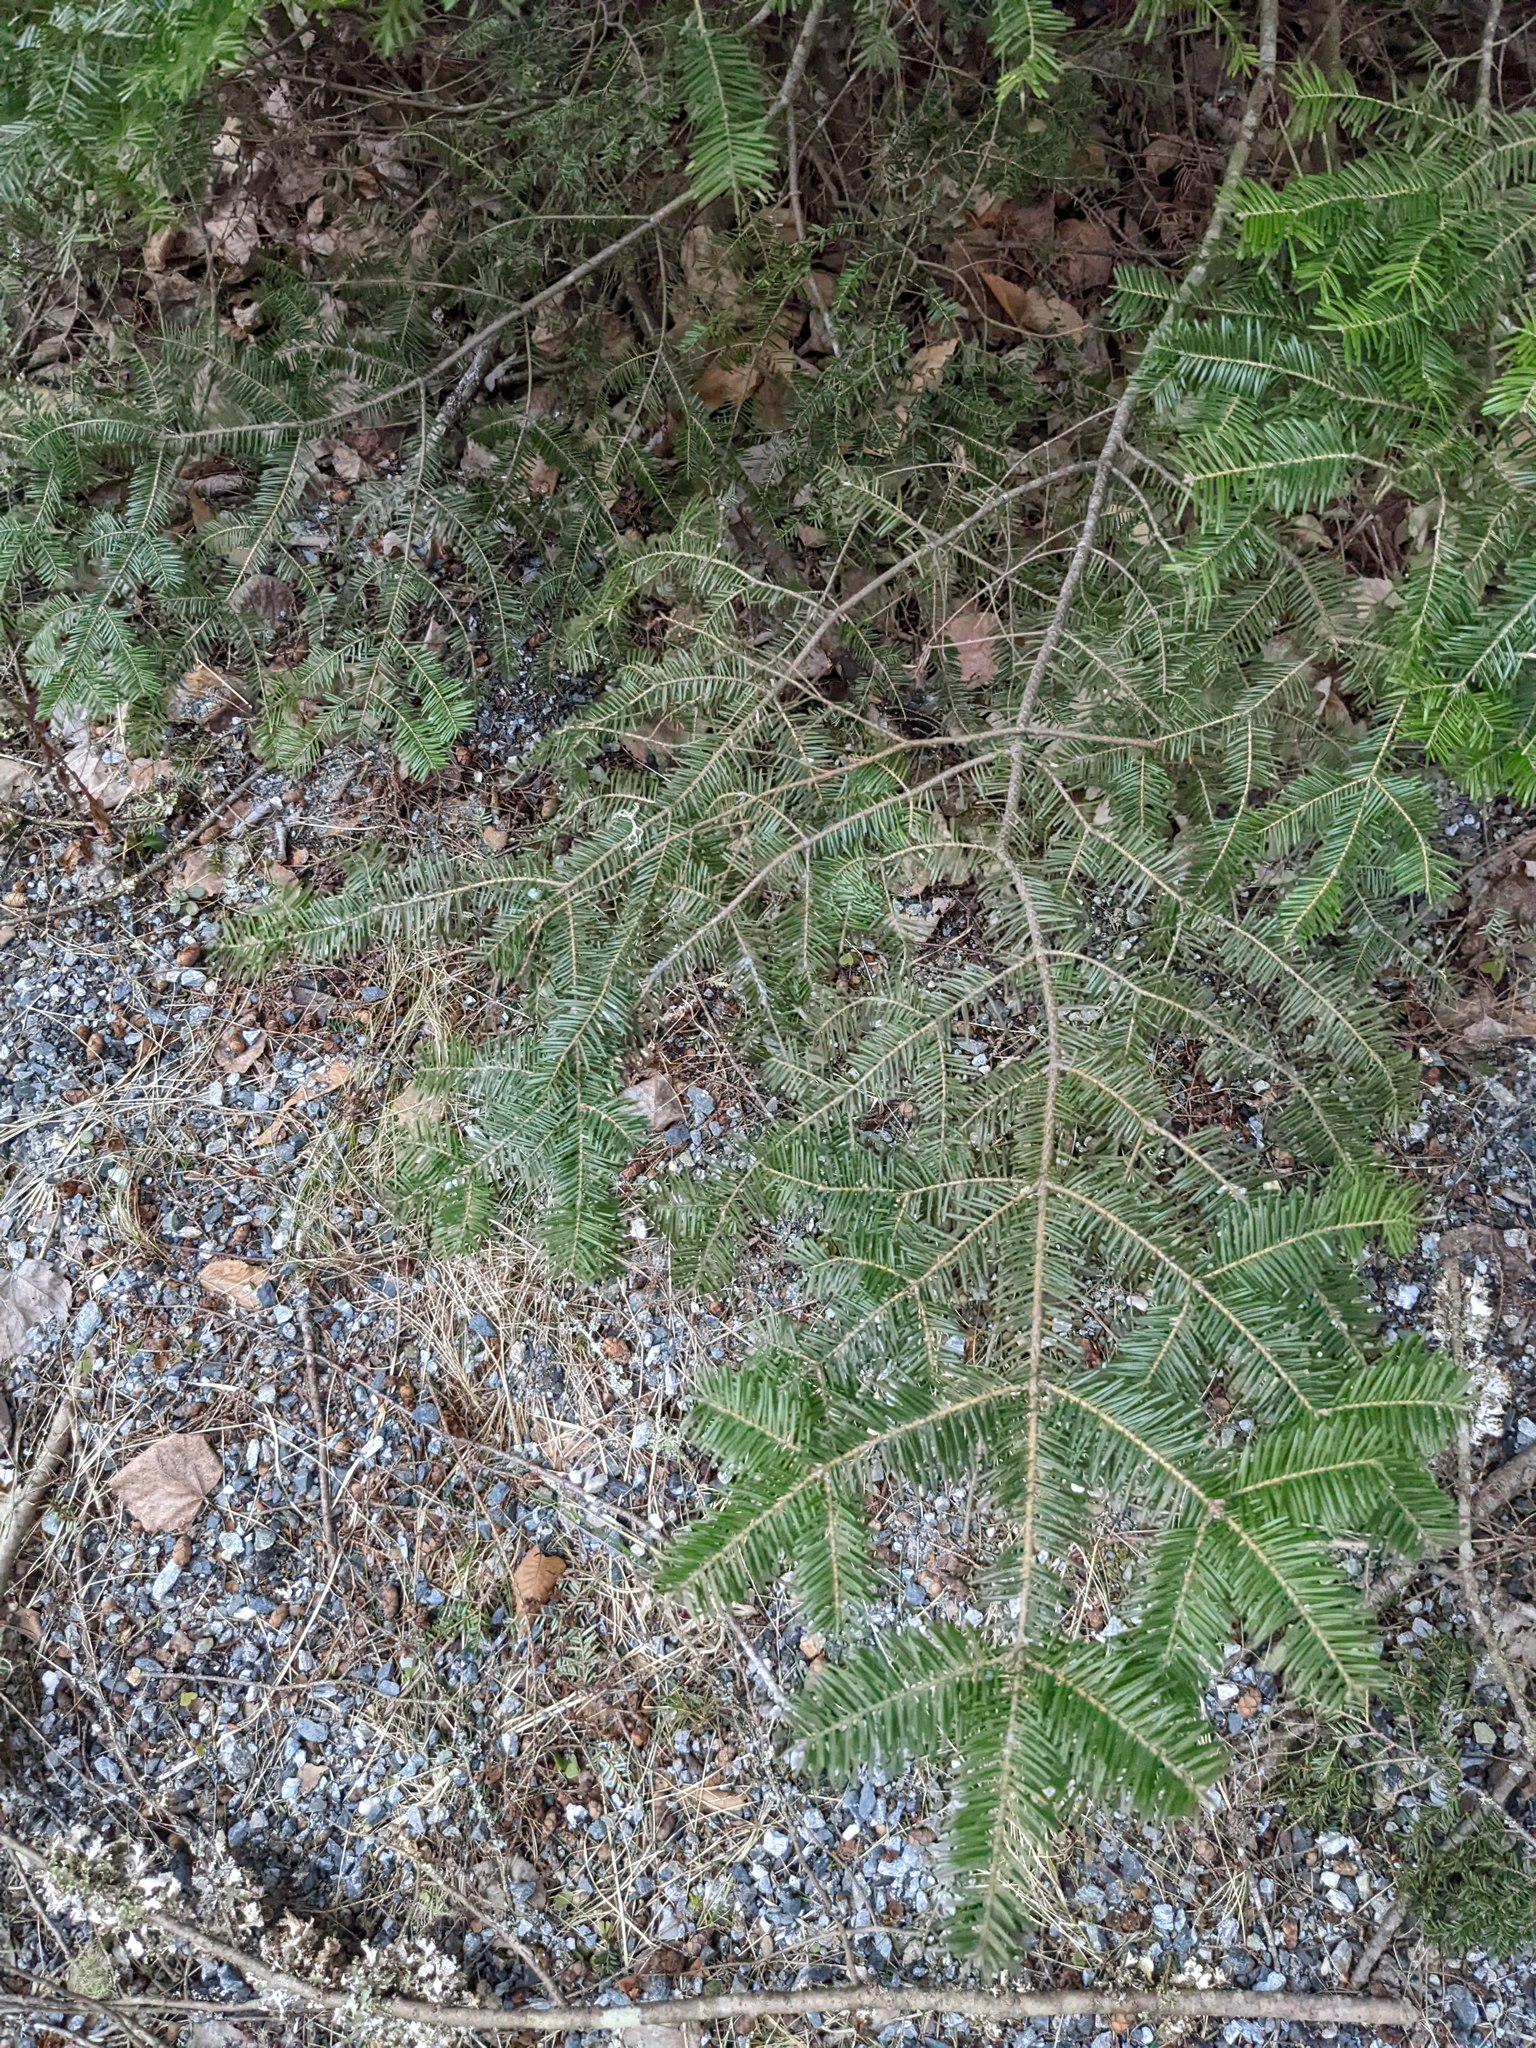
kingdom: Plantae
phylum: Tracheophyta
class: Pinopsida
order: Pinales
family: Pinaceae
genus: Abies
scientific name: Abies balsamea
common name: Balsam fir
